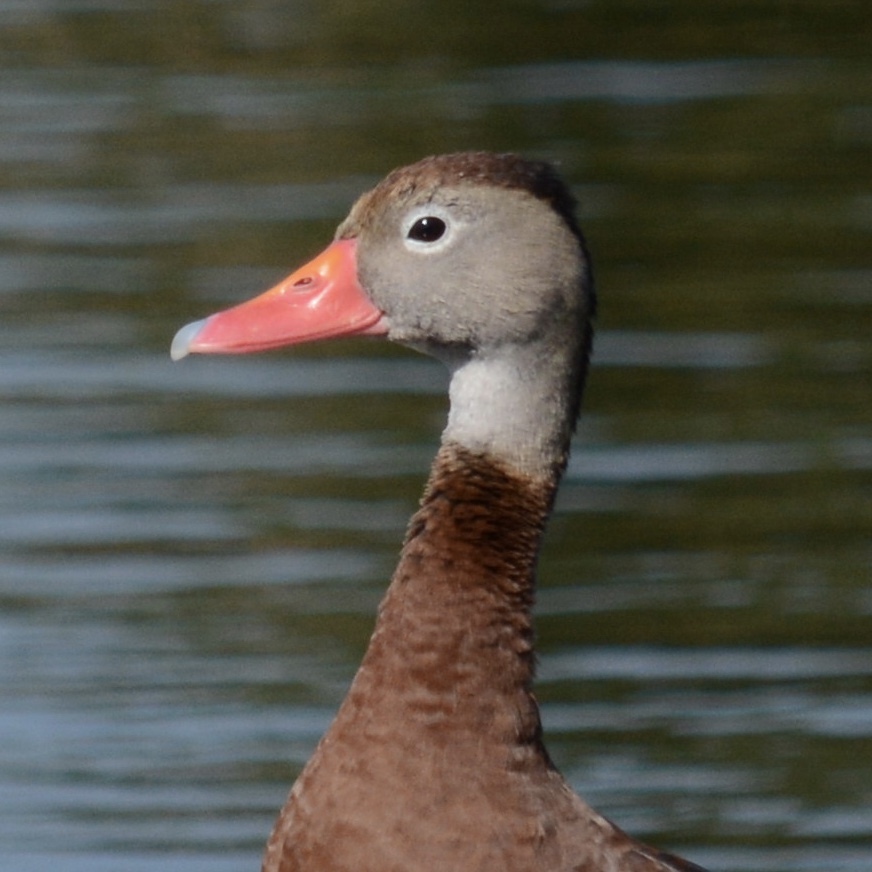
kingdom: Animalia
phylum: Chordata
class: Aves
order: Anseriformes
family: Anatidae
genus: Dendrocygna
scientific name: Dendrocygna autumnalis
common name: Black-bellied whistling duck
